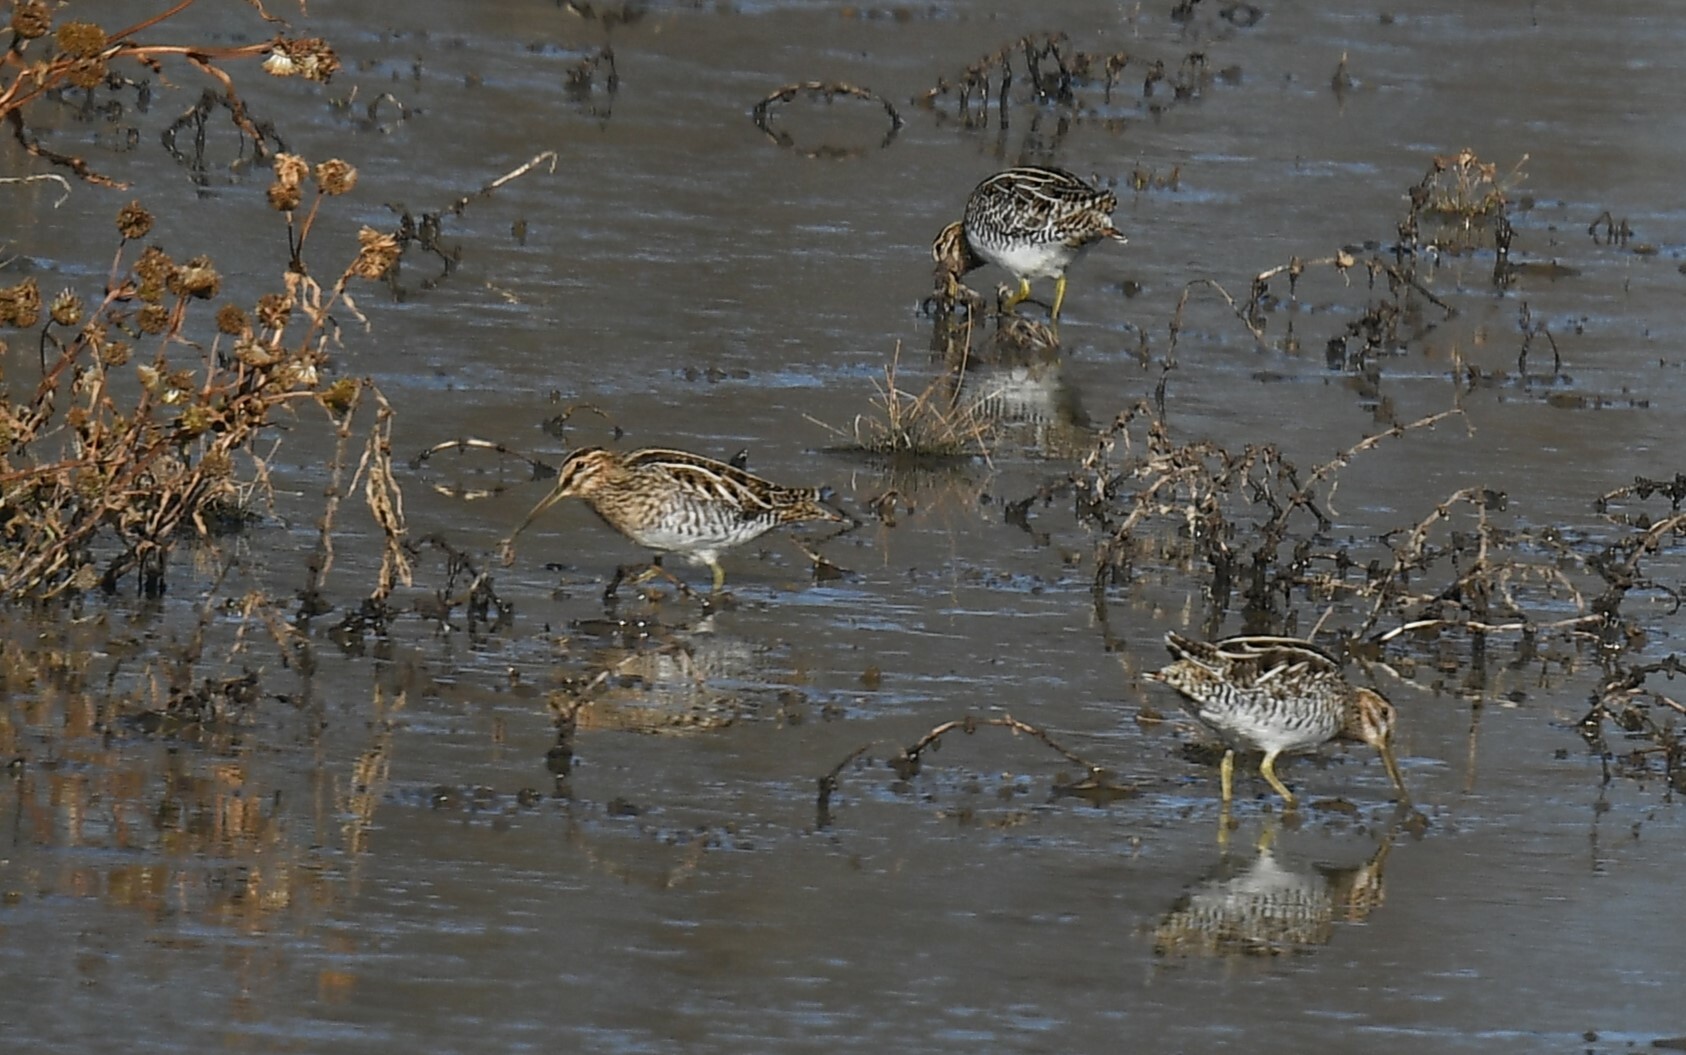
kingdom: Animalia
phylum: Chordata
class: Aves
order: Charadriiformes
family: Scolopacidae
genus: Gallinago
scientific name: Gallinago delicata
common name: Wilson's snipe
